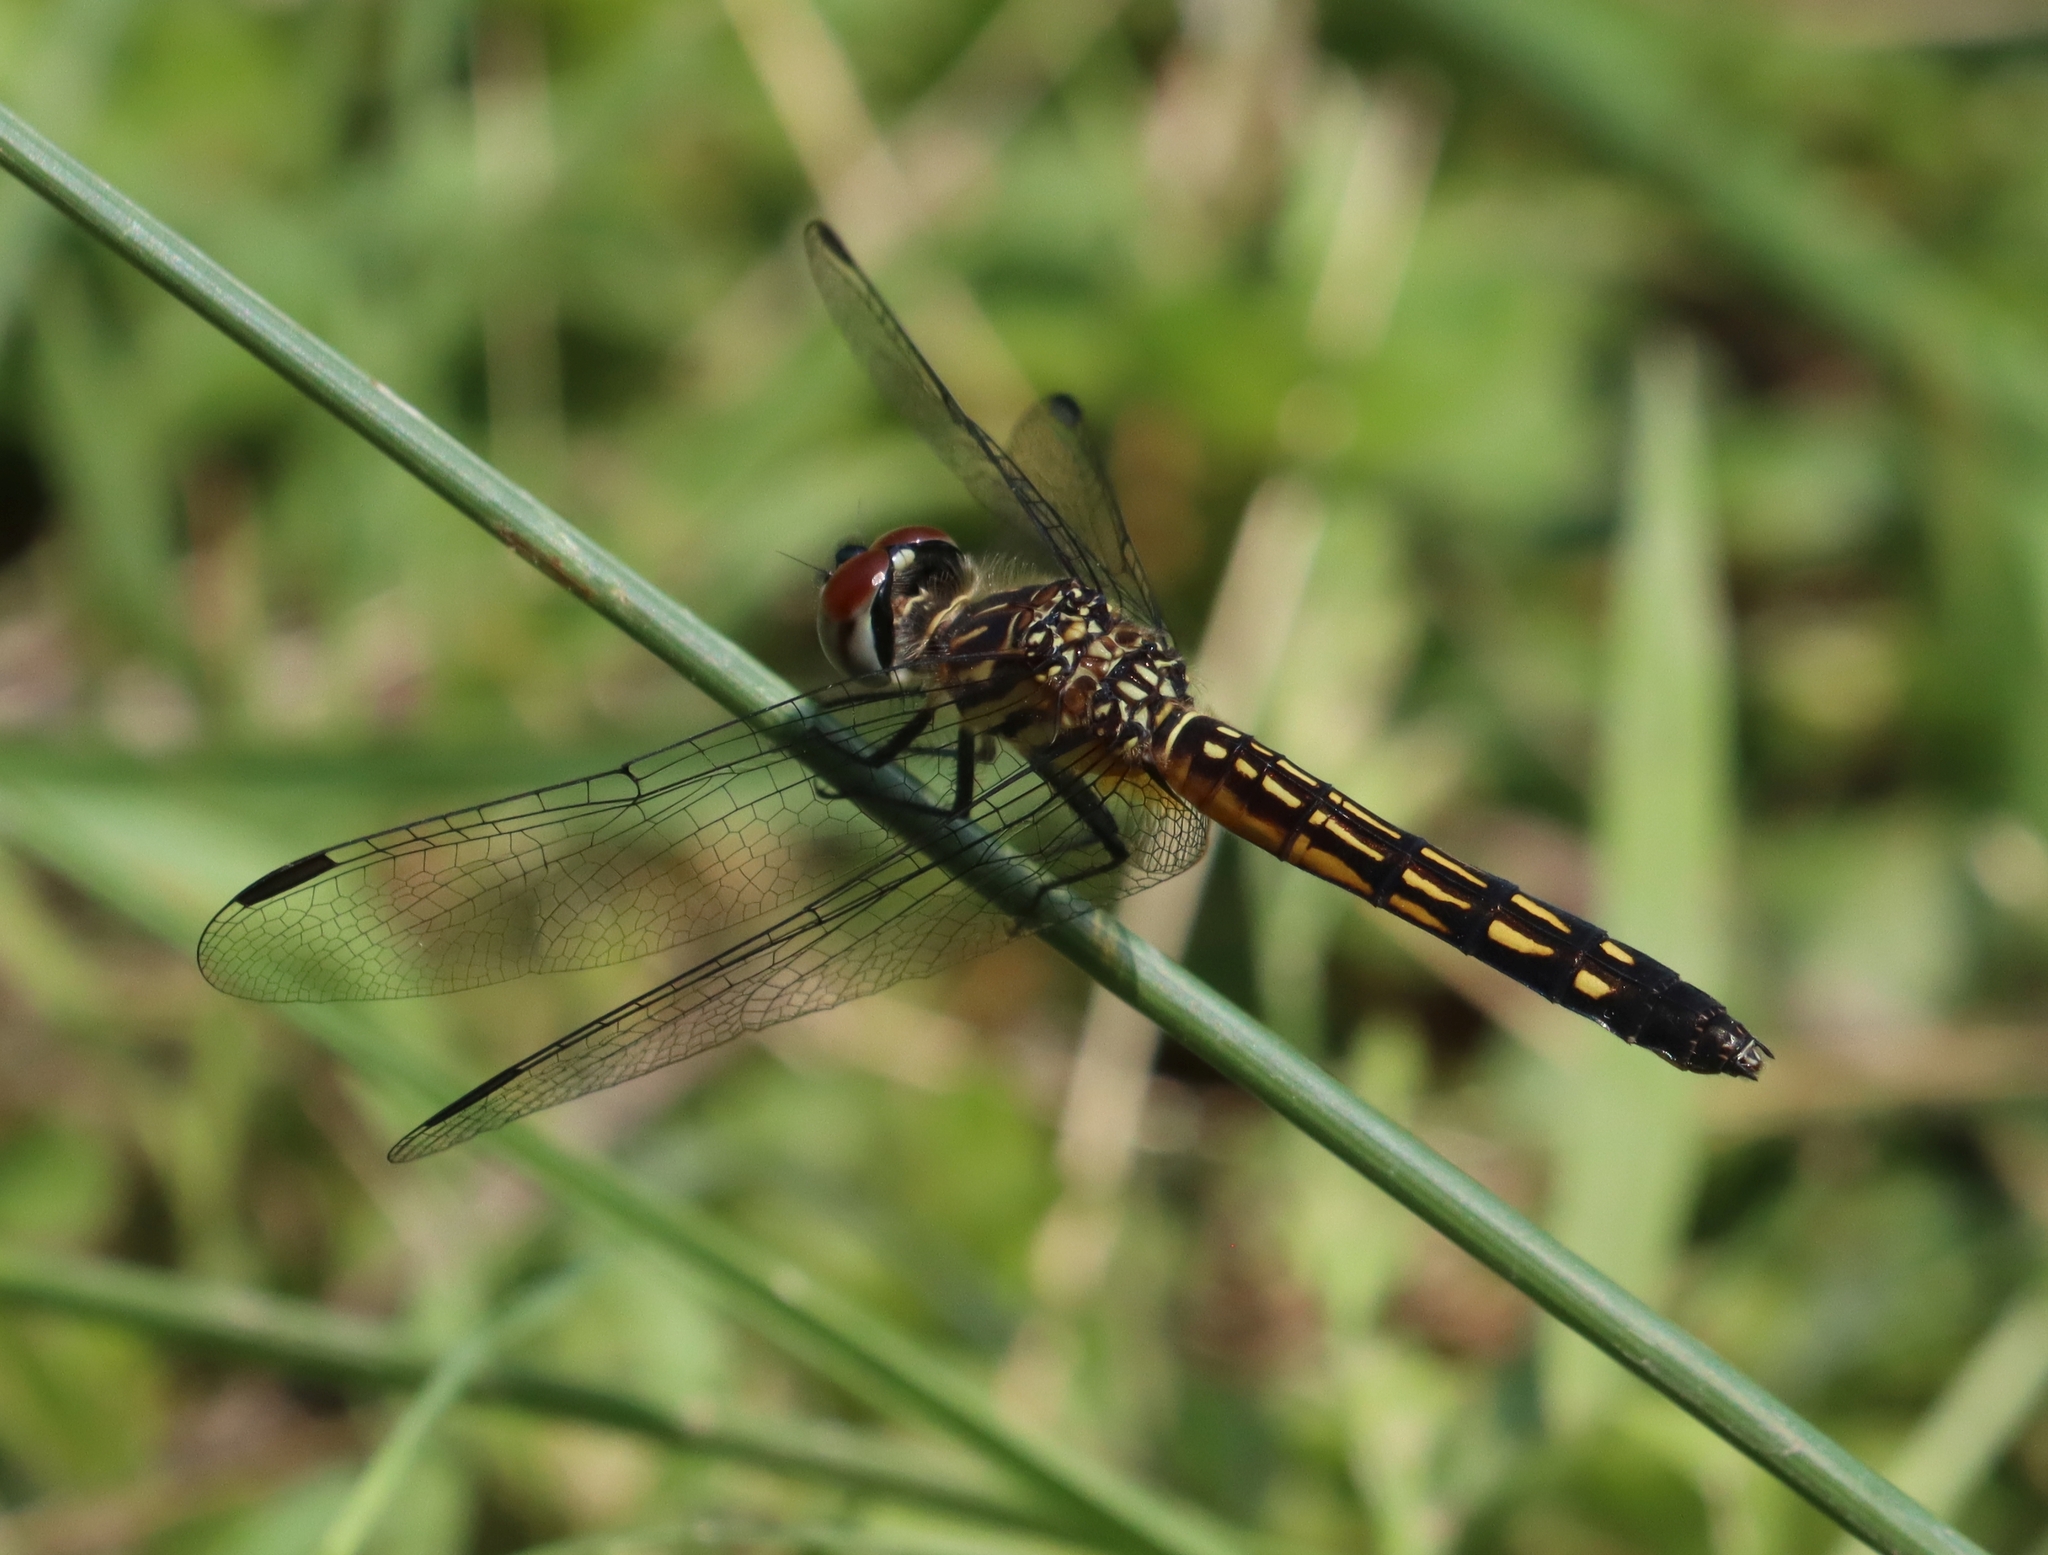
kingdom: Animalia
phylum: Arthropoda
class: Insecta
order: Odonata
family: Libellulidae
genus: Pachydiplax
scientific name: Pachydiplax longipennis
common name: Blue dasher
